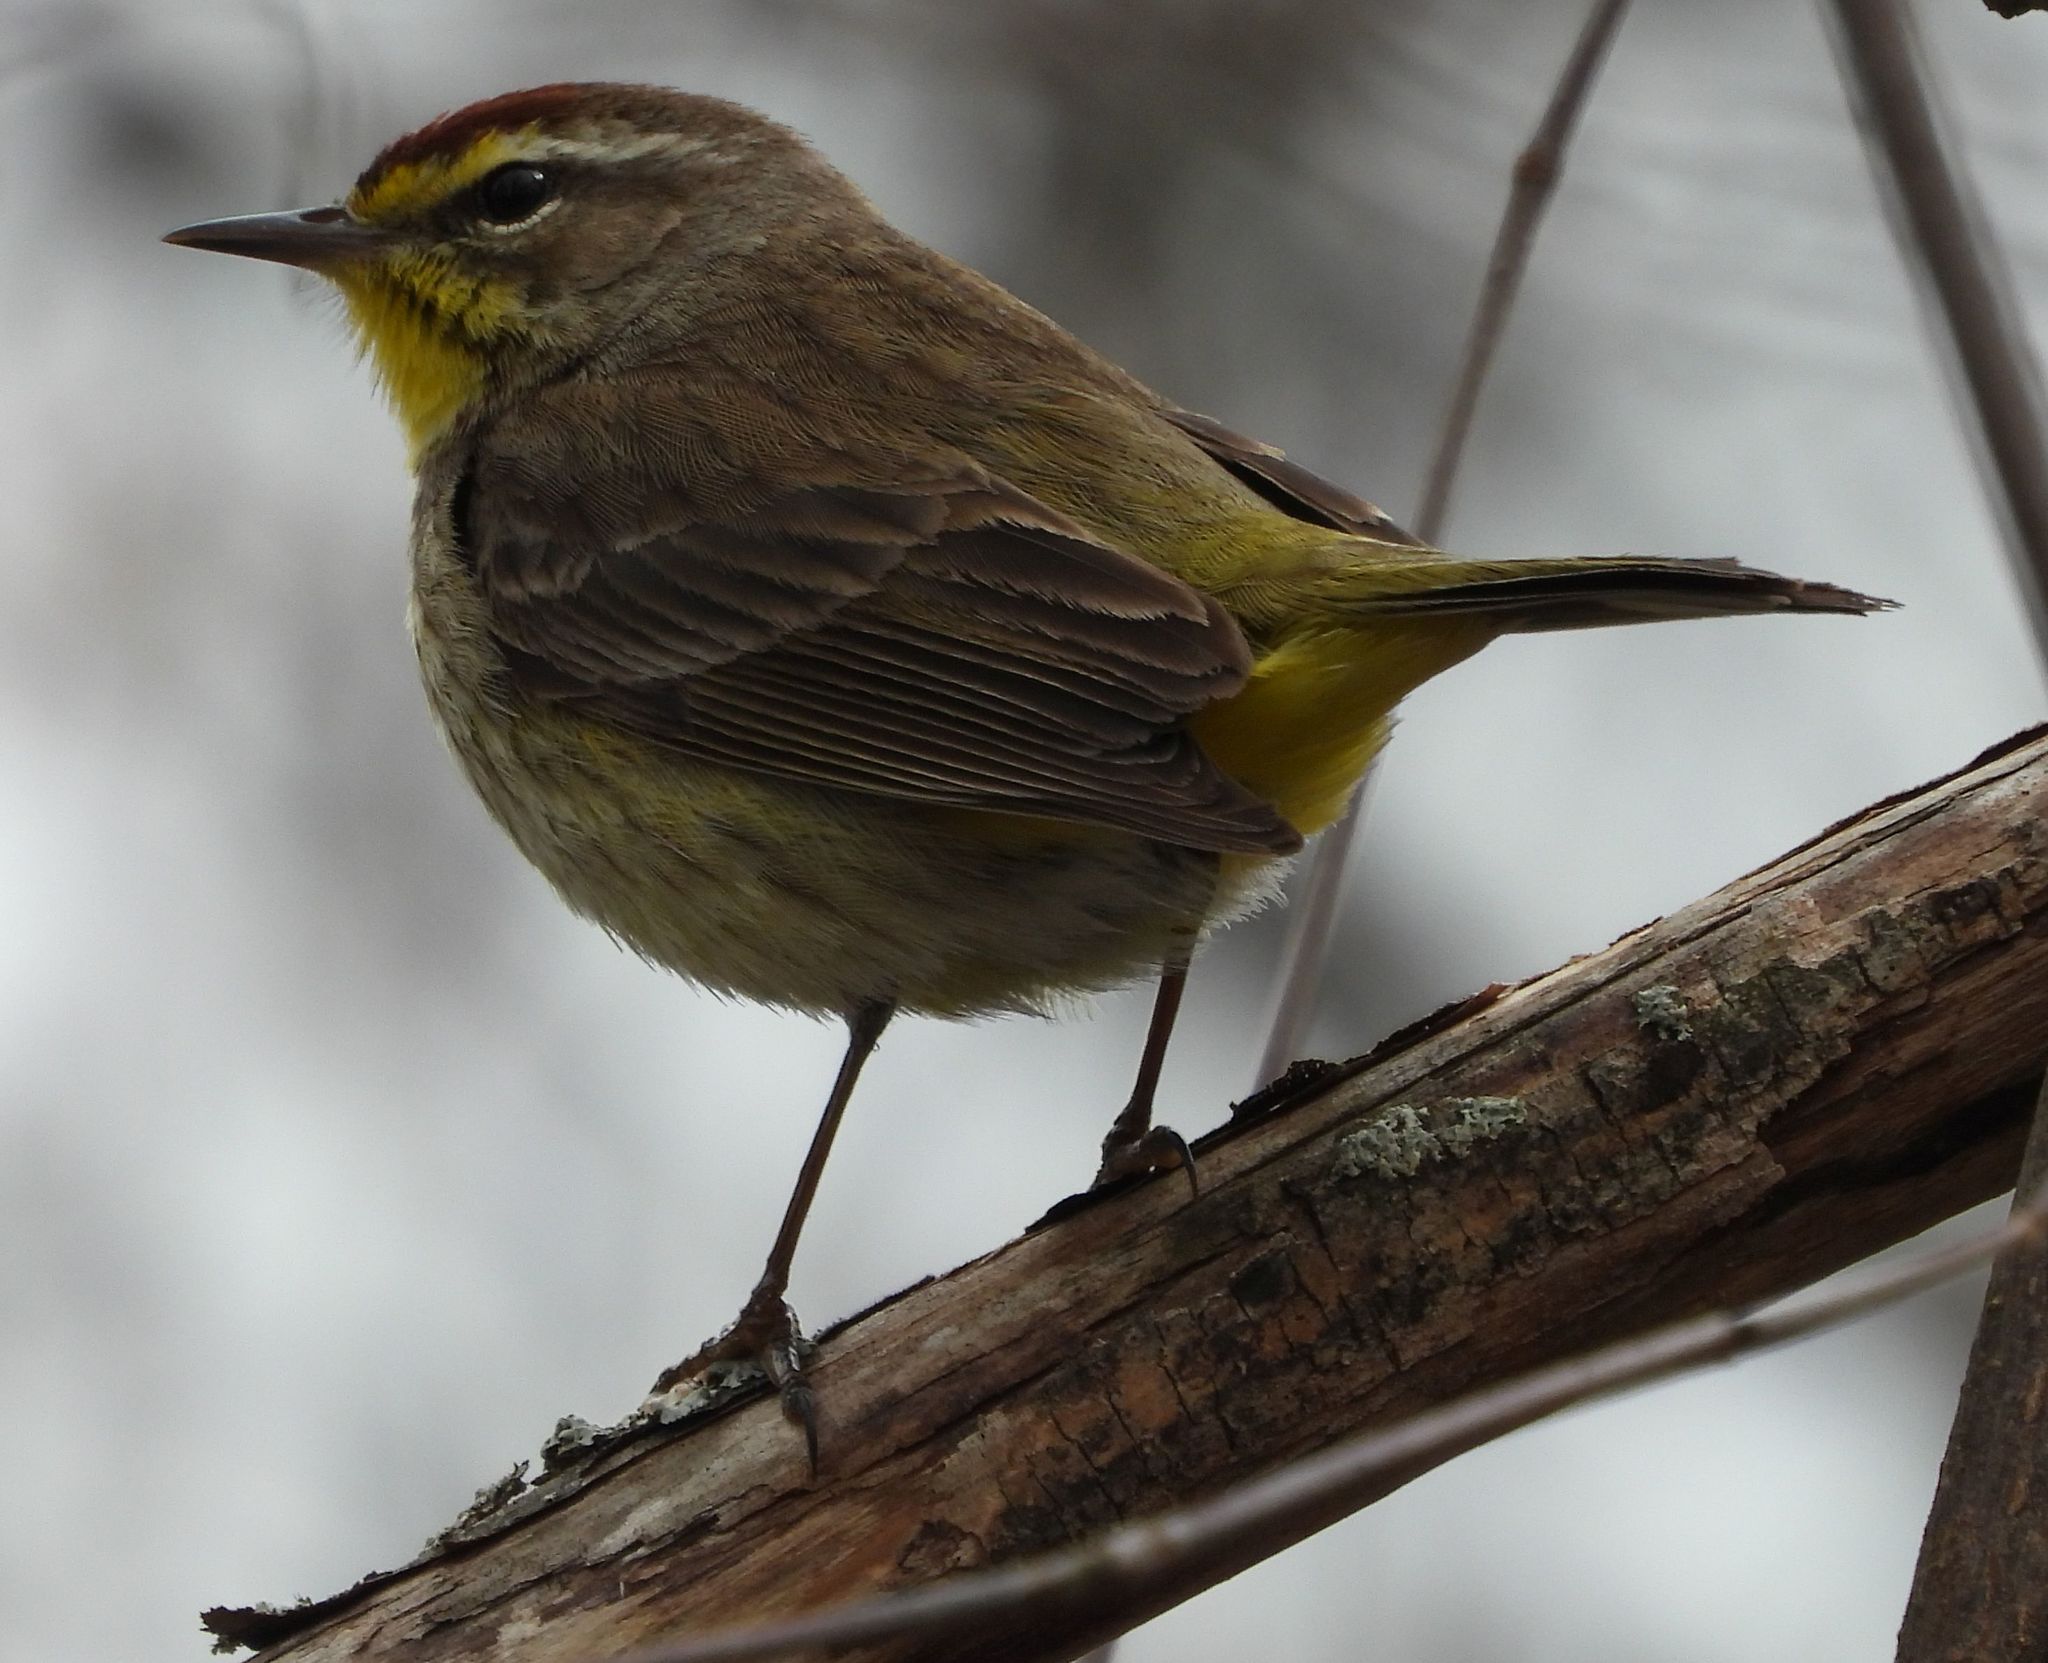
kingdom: Animalia
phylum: Chordata
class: Aves
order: Passeriformes
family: Parulidae
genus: Setophaga
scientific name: Setophaga palmarum
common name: Palm warbler
